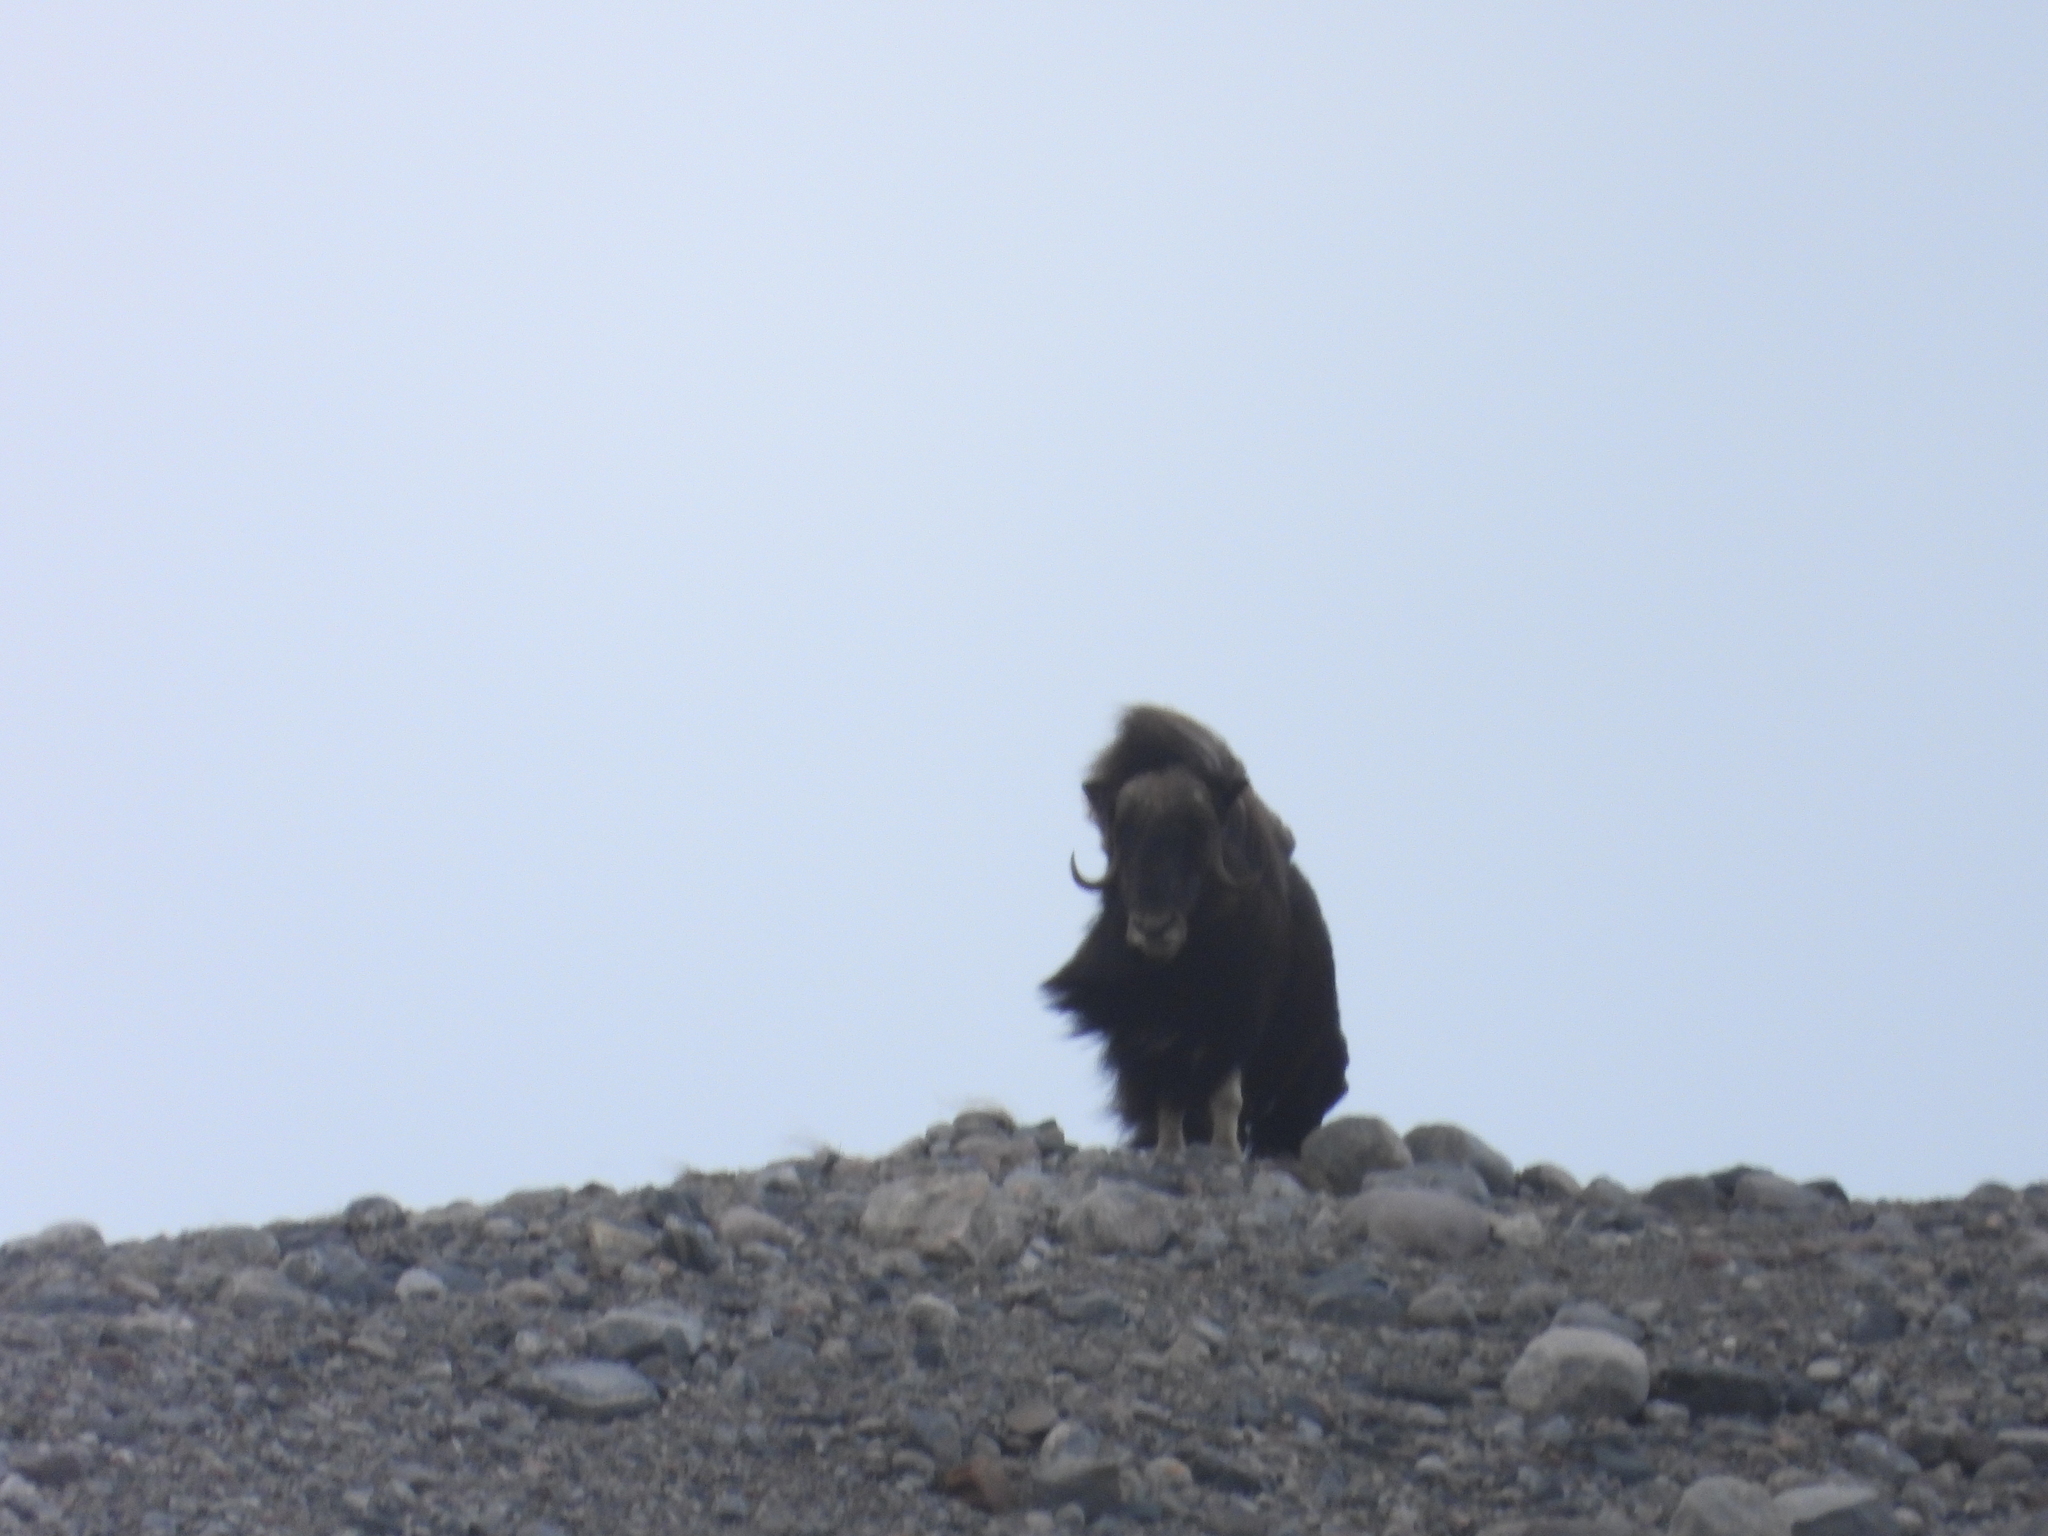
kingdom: Animalia
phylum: Chordata
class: Mammalia
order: Artiodactyla
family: Bovidae
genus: Ovibos
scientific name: Ovibos moschatus
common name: Muskox
